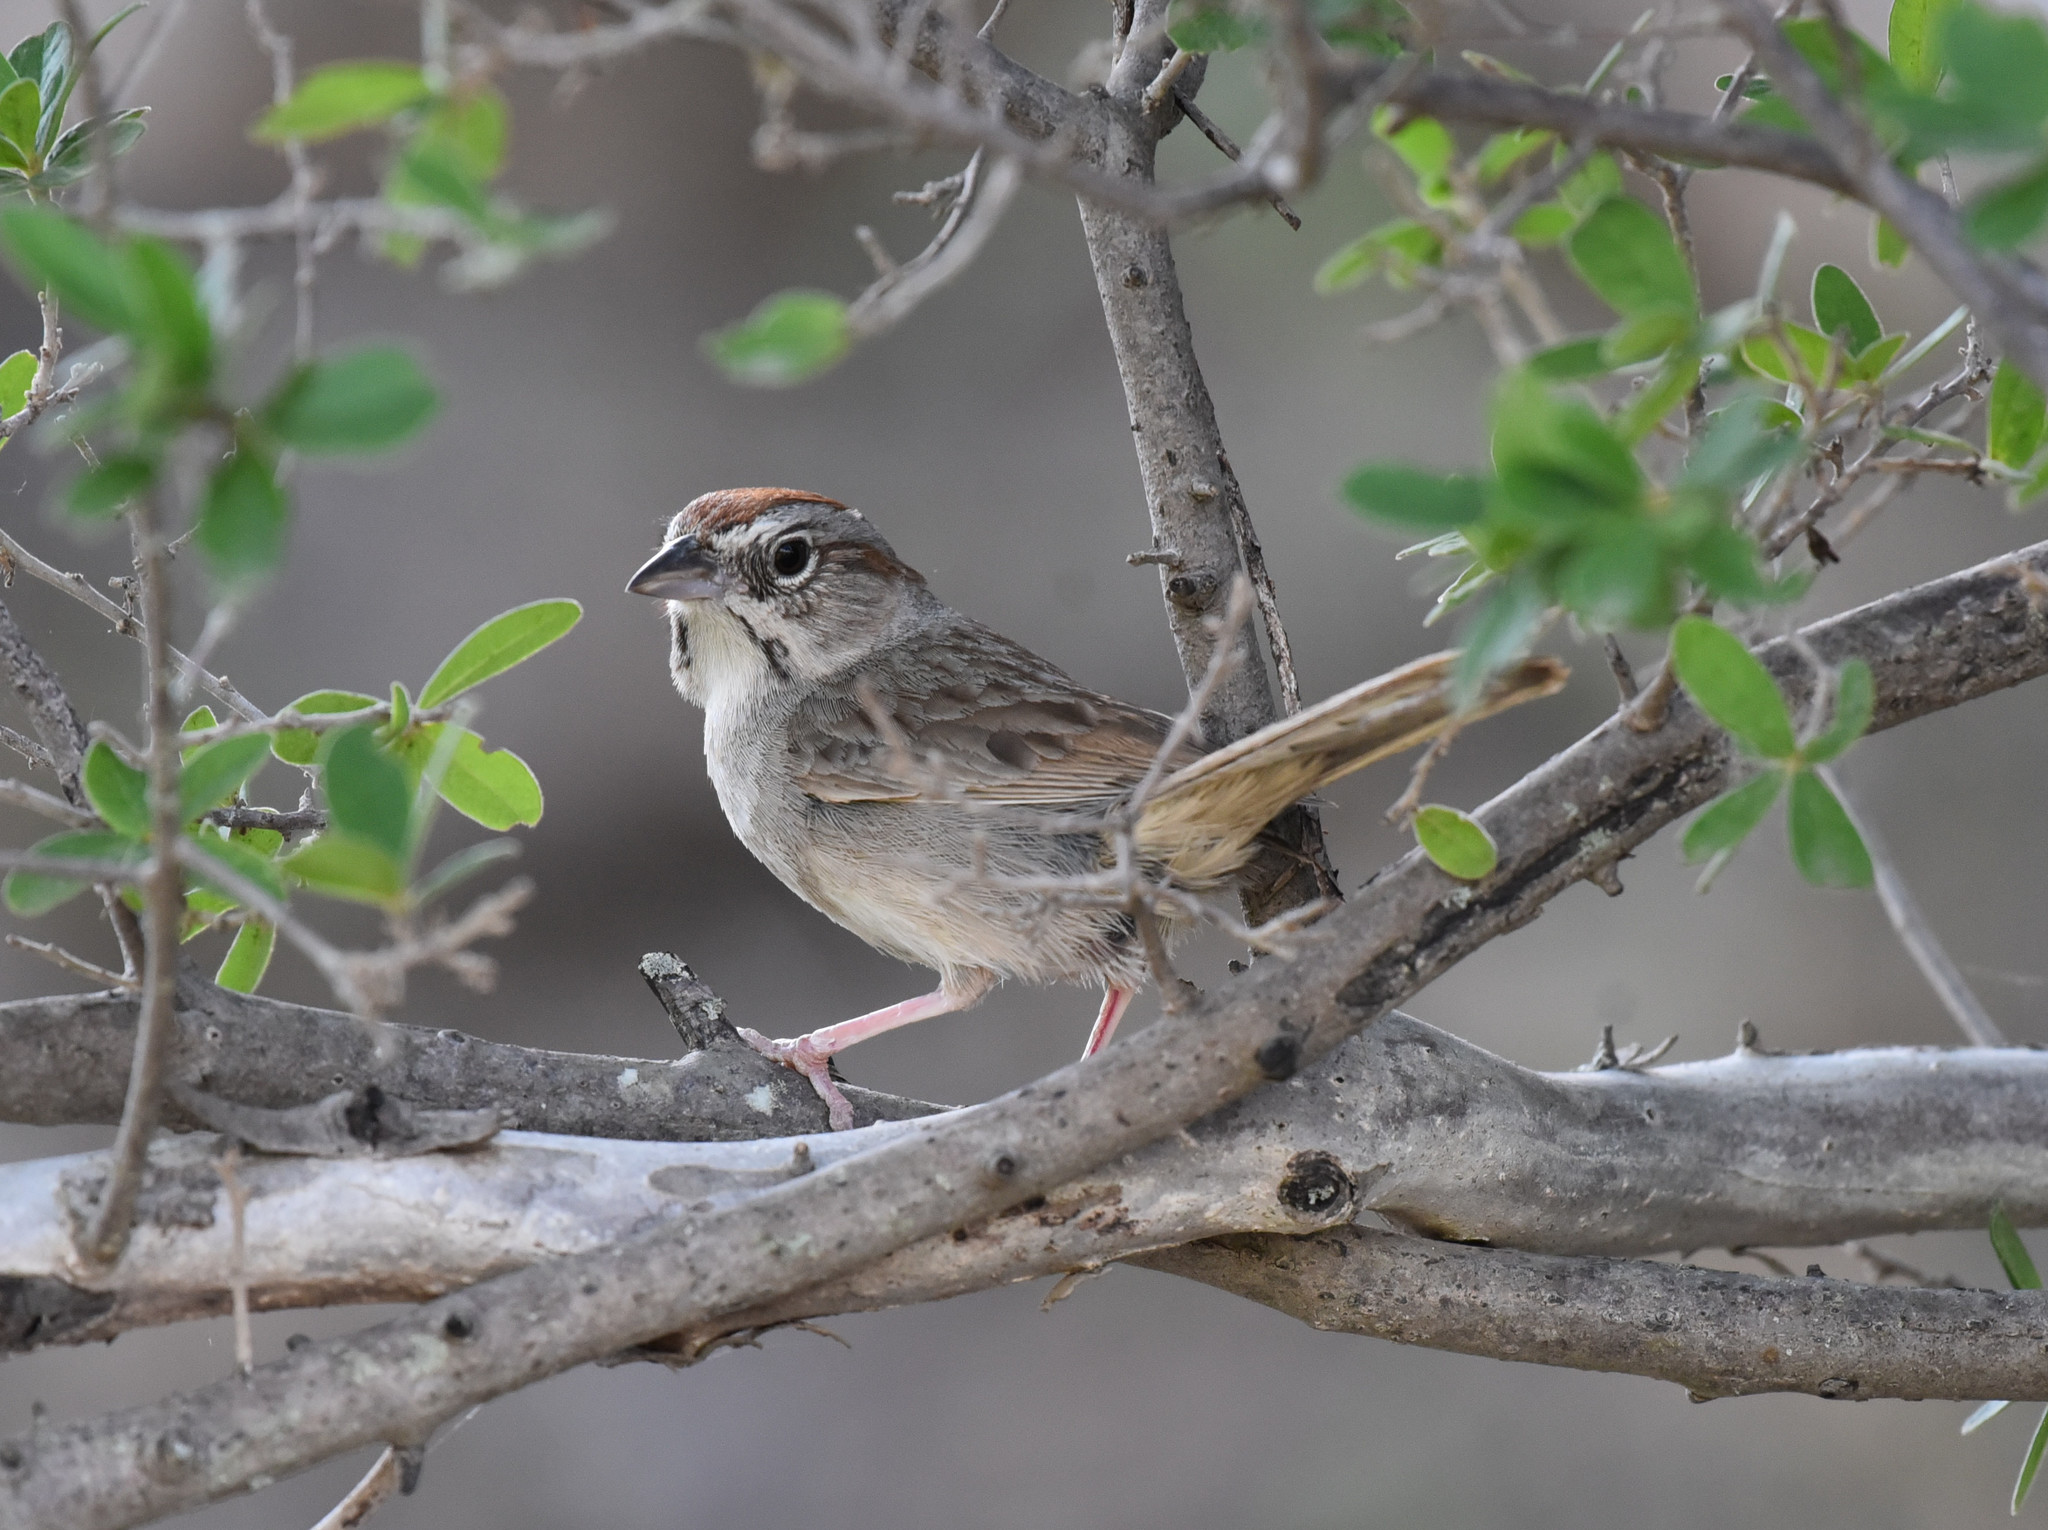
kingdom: Animalia
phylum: Chordata
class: Aves
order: Passeriformes
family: Passerellidae
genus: Aimophila
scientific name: Aimophila ruficeps
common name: Rufous-crowned sparrow
